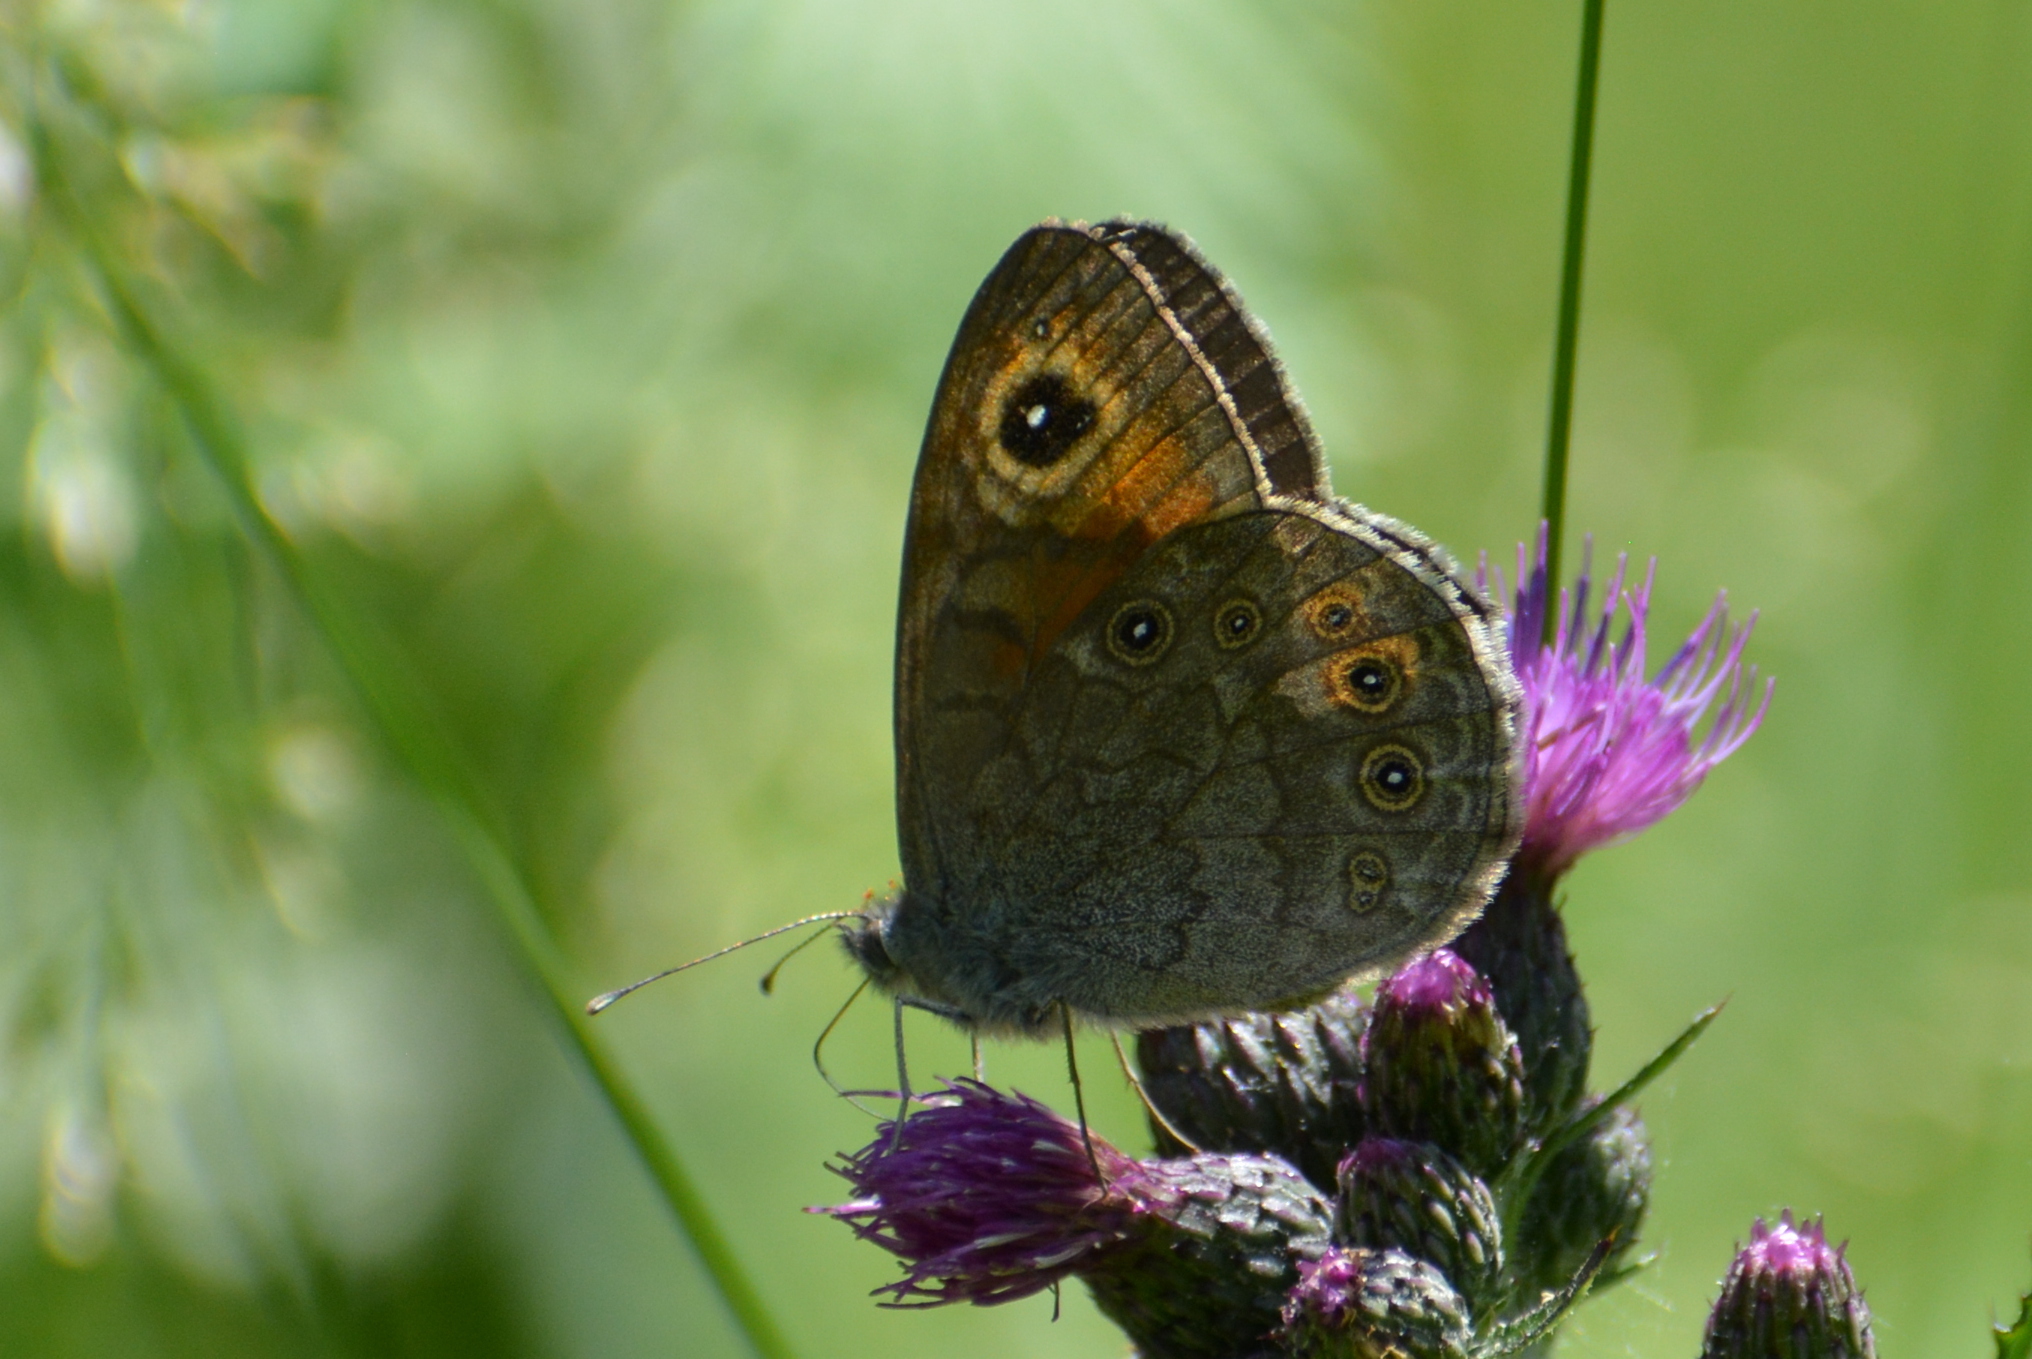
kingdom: Animalia
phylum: Arthropoda
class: Insecta
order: Lepidoptera
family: Nymphalidae
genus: Pararge
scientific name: Pararge Lasiommata megera
